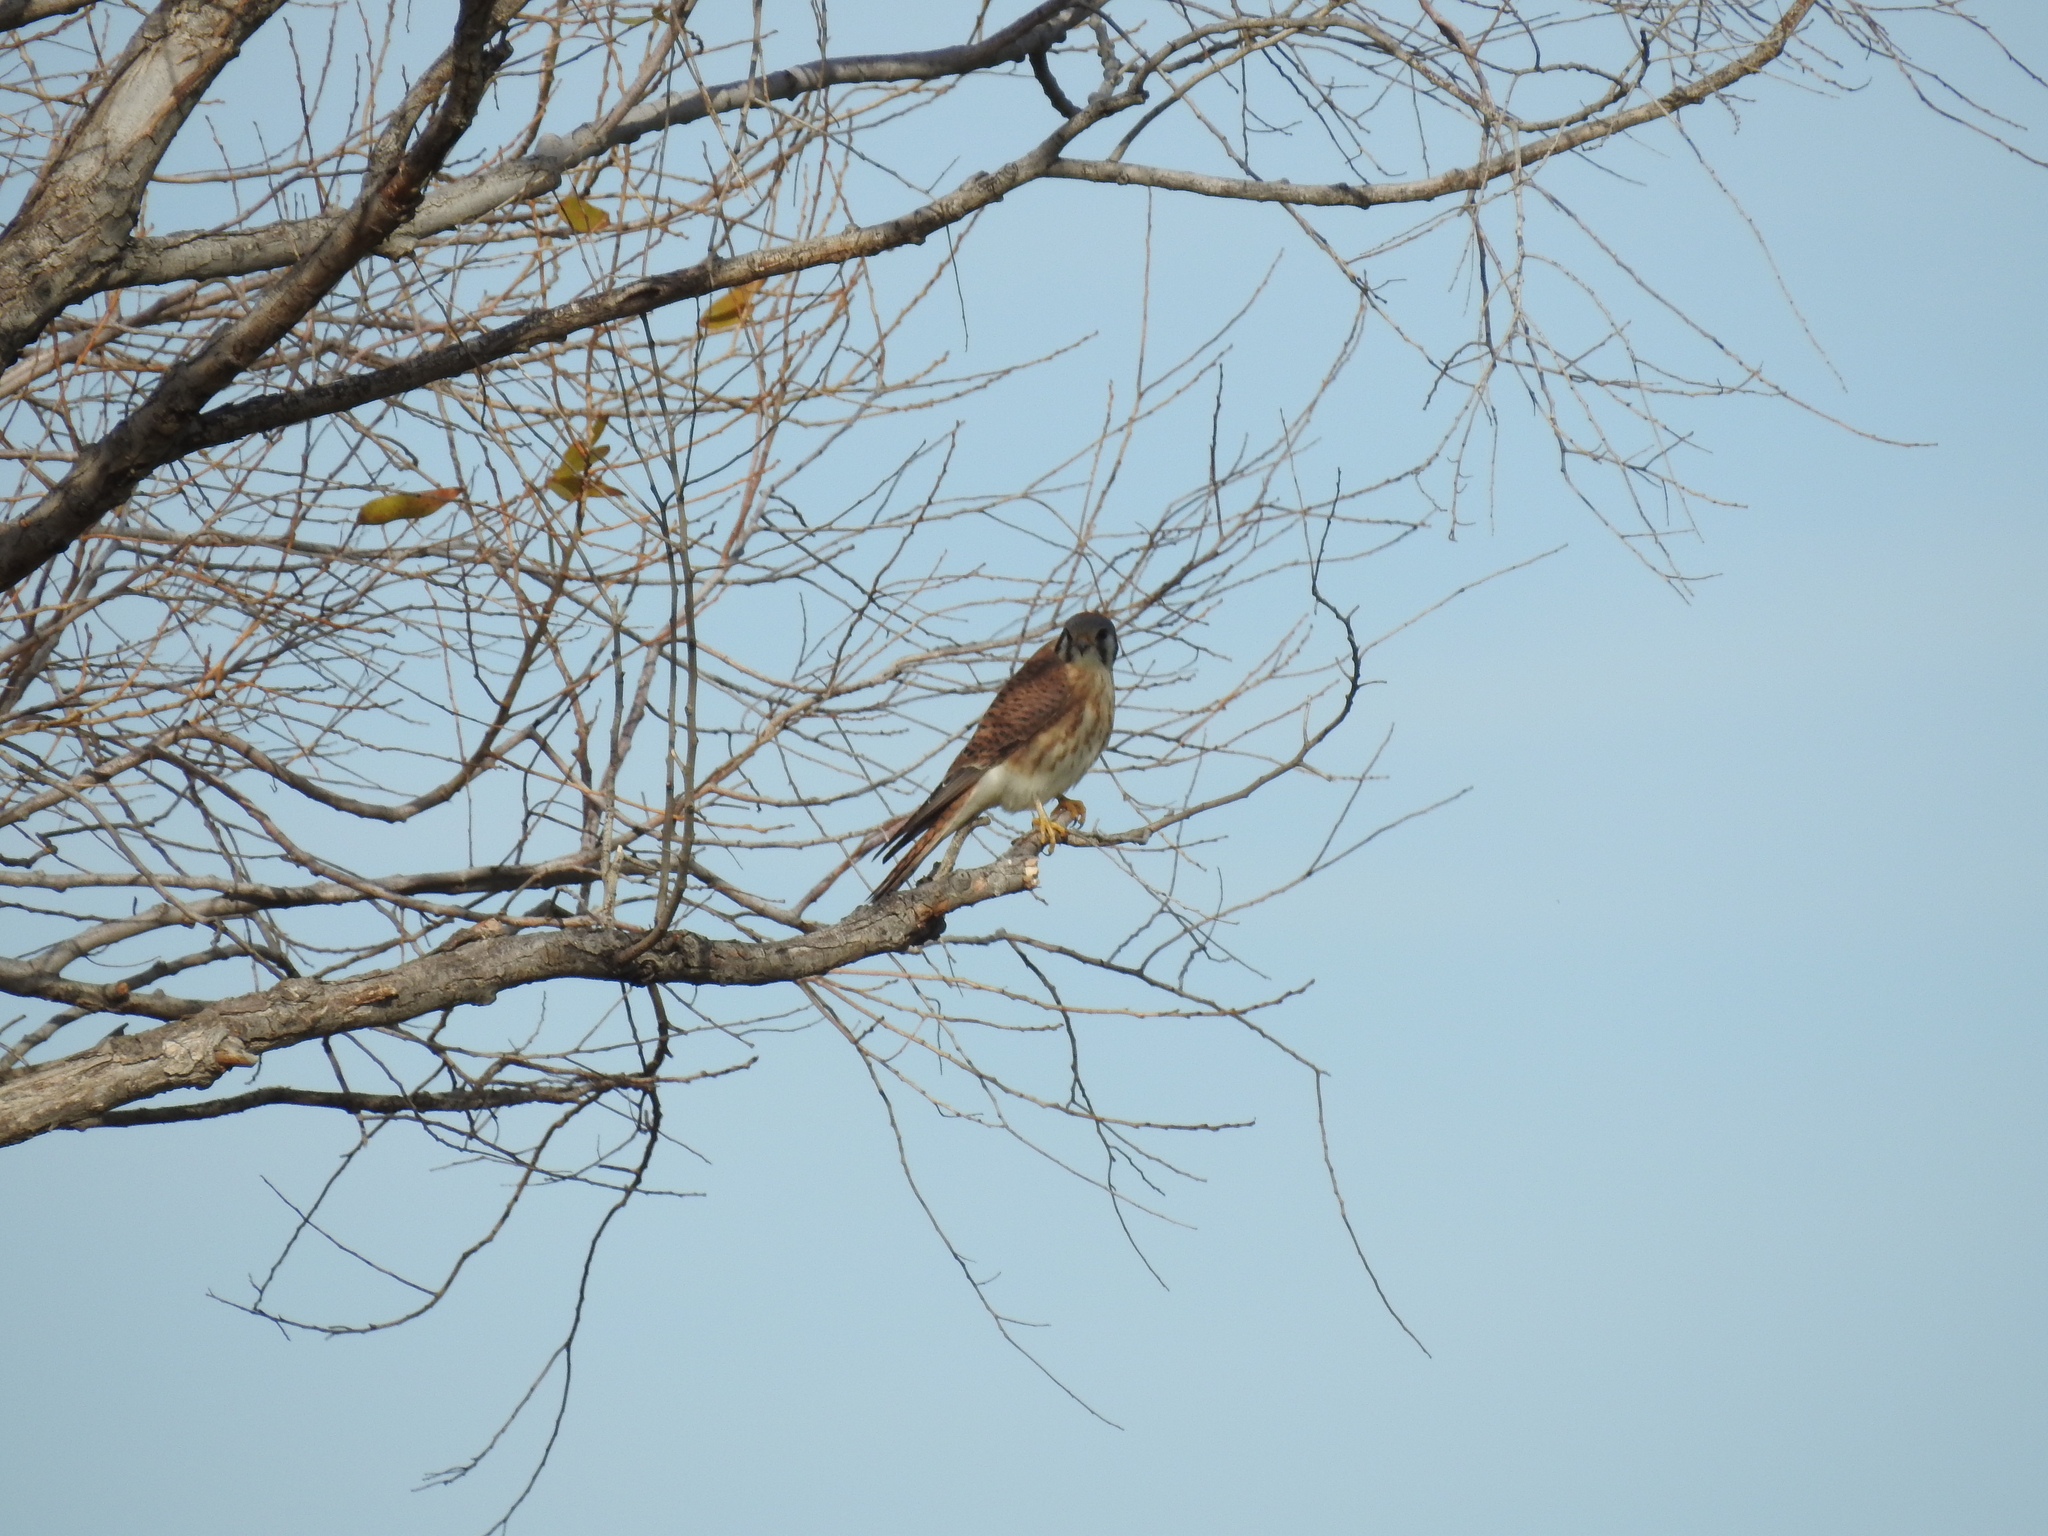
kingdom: Animalia
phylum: Chordata
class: Aves
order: Falconiformes
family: Falconidae
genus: Falco
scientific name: Falco sparverius
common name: American kestrel
